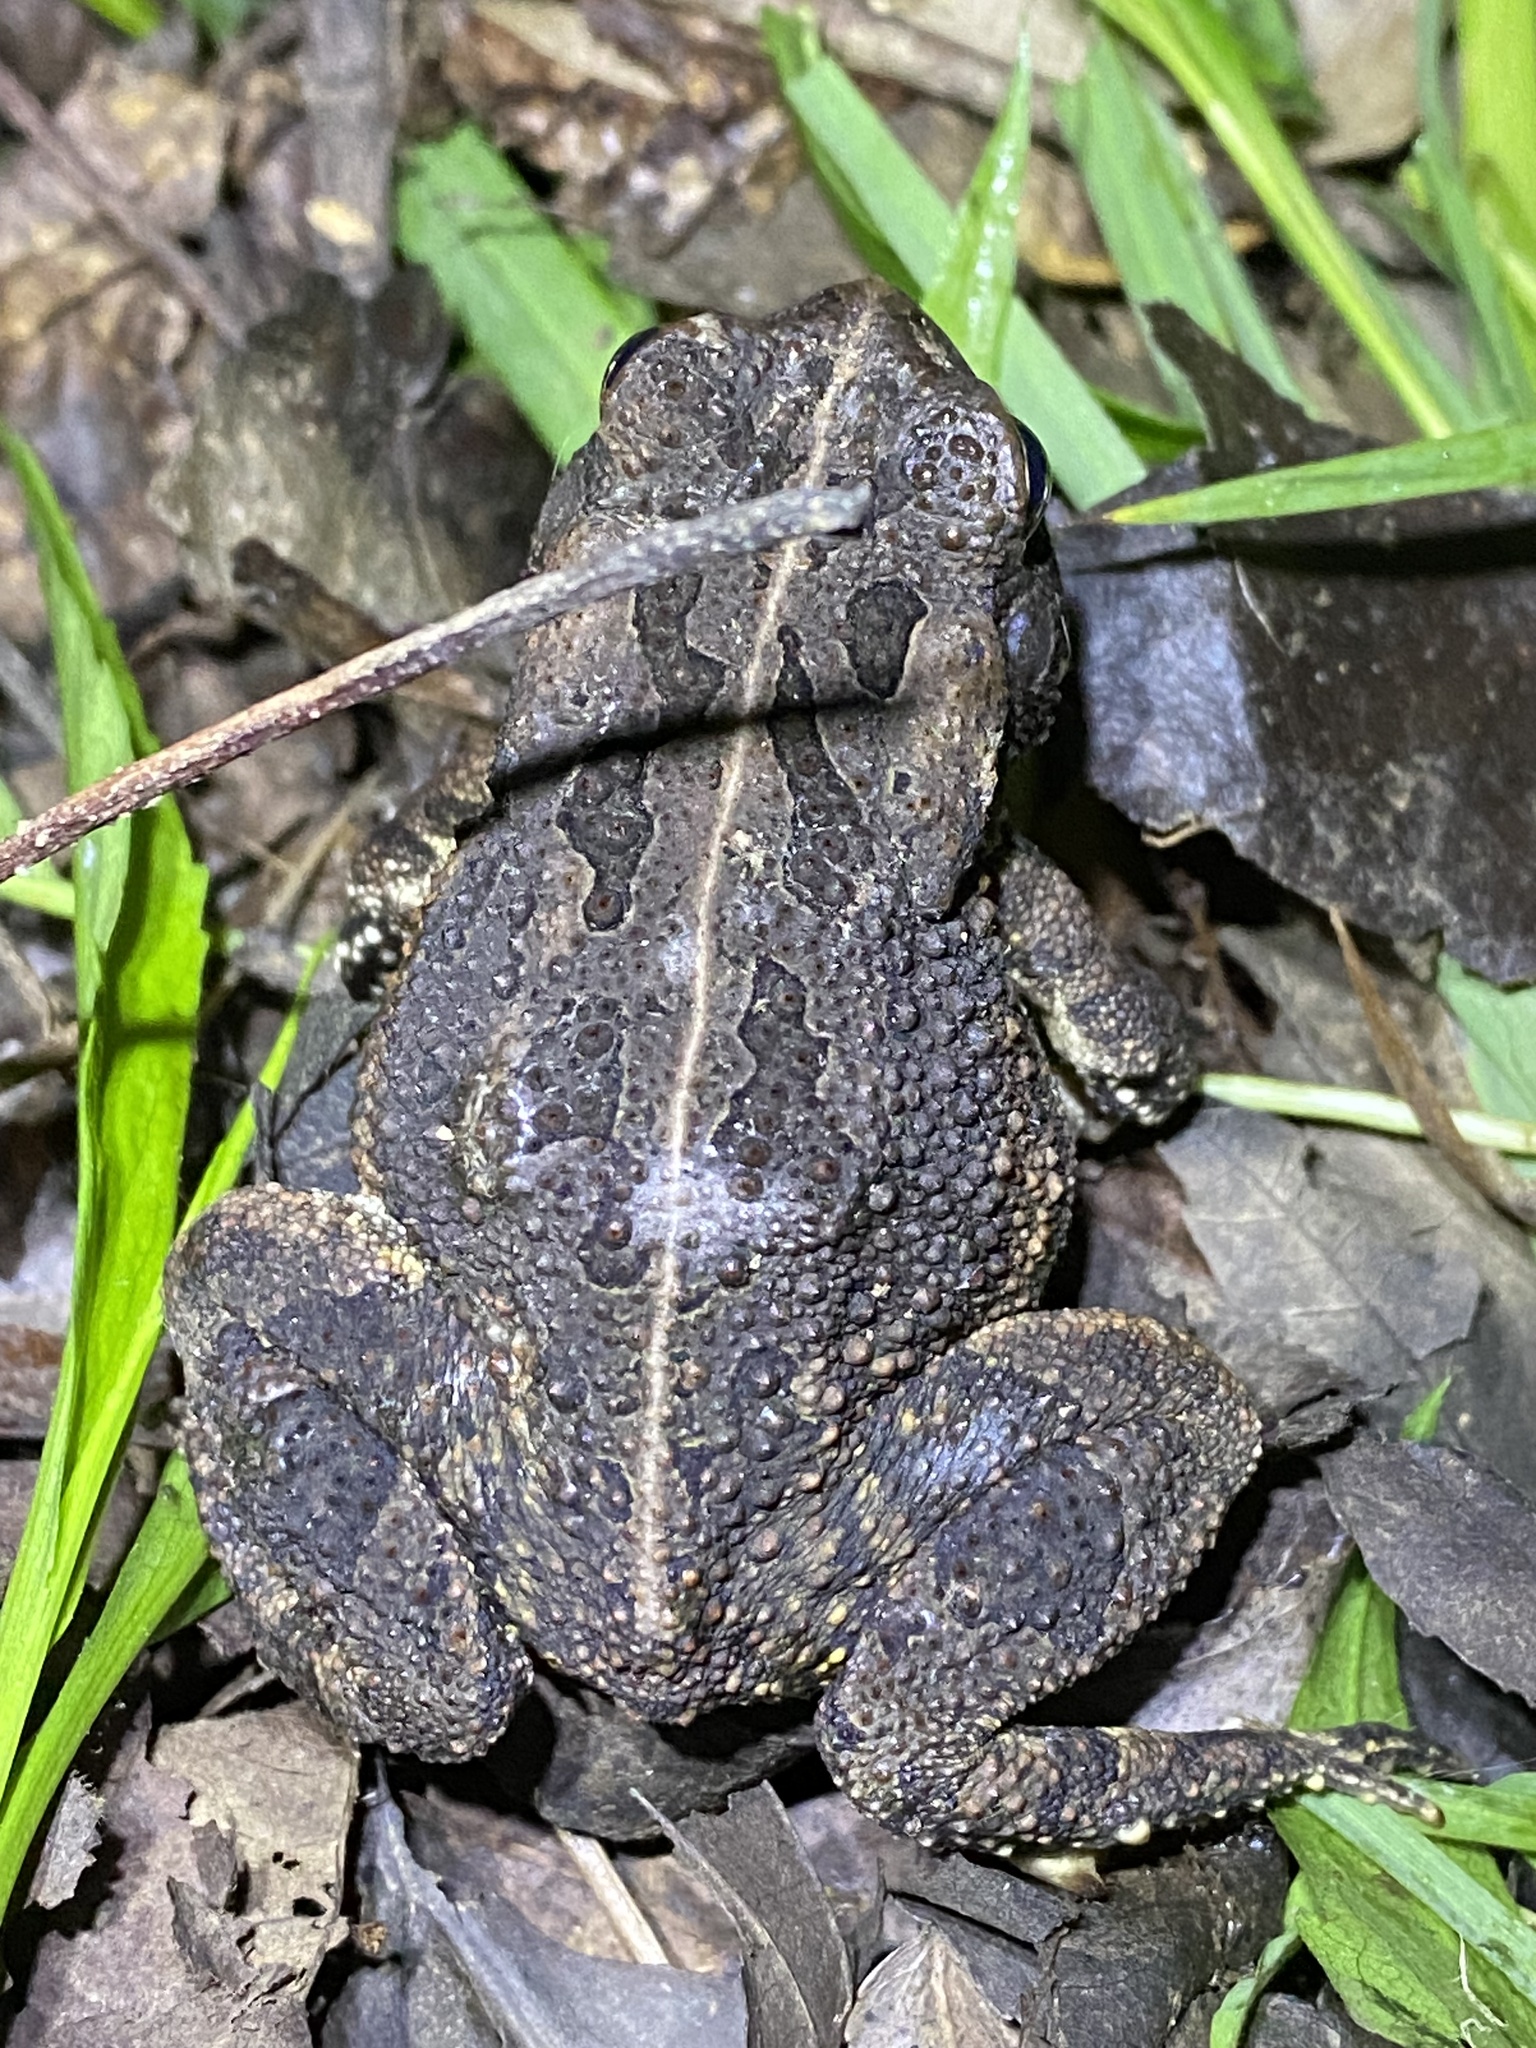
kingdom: Animalia
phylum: Chordata
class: Amphibia
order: Anura
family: Bufonidae
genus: Anaxyrus
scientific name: Anaxyrus fowleri
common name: Fowler's toad
